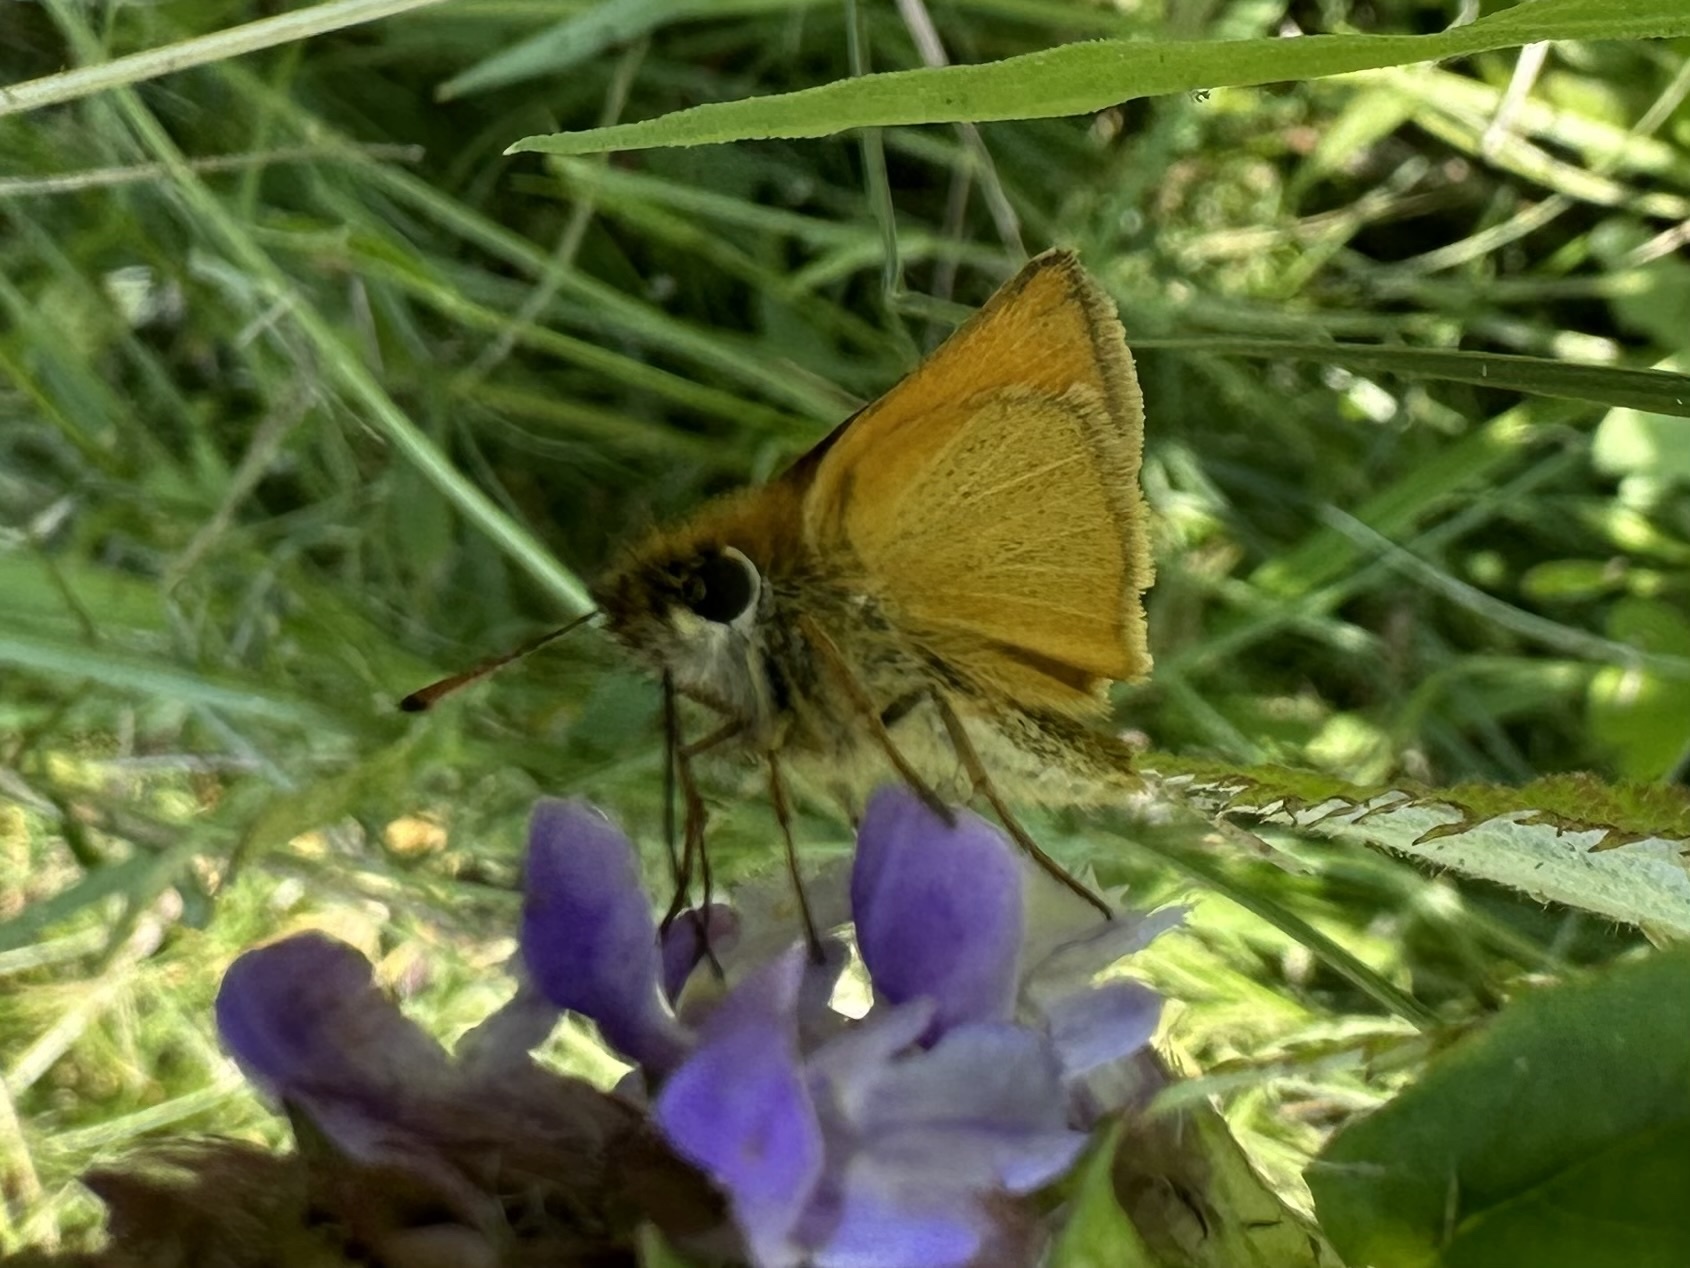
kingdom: Animalia
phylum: Arthropoda
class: Insecta
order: Lepidoptera
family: Hesperiidae
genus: Thymelicus
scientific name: Thymelicus lineola
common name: Essex skipper
